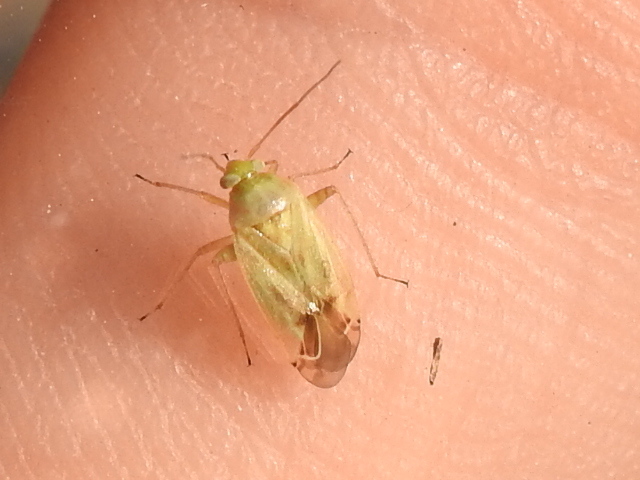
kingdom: Animalia
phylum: Arthropoda
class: Insecta
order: Hemiptera
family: Miridae
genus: Taylorilygus
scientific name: Taylorilygus apicalis
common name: Plant bug
